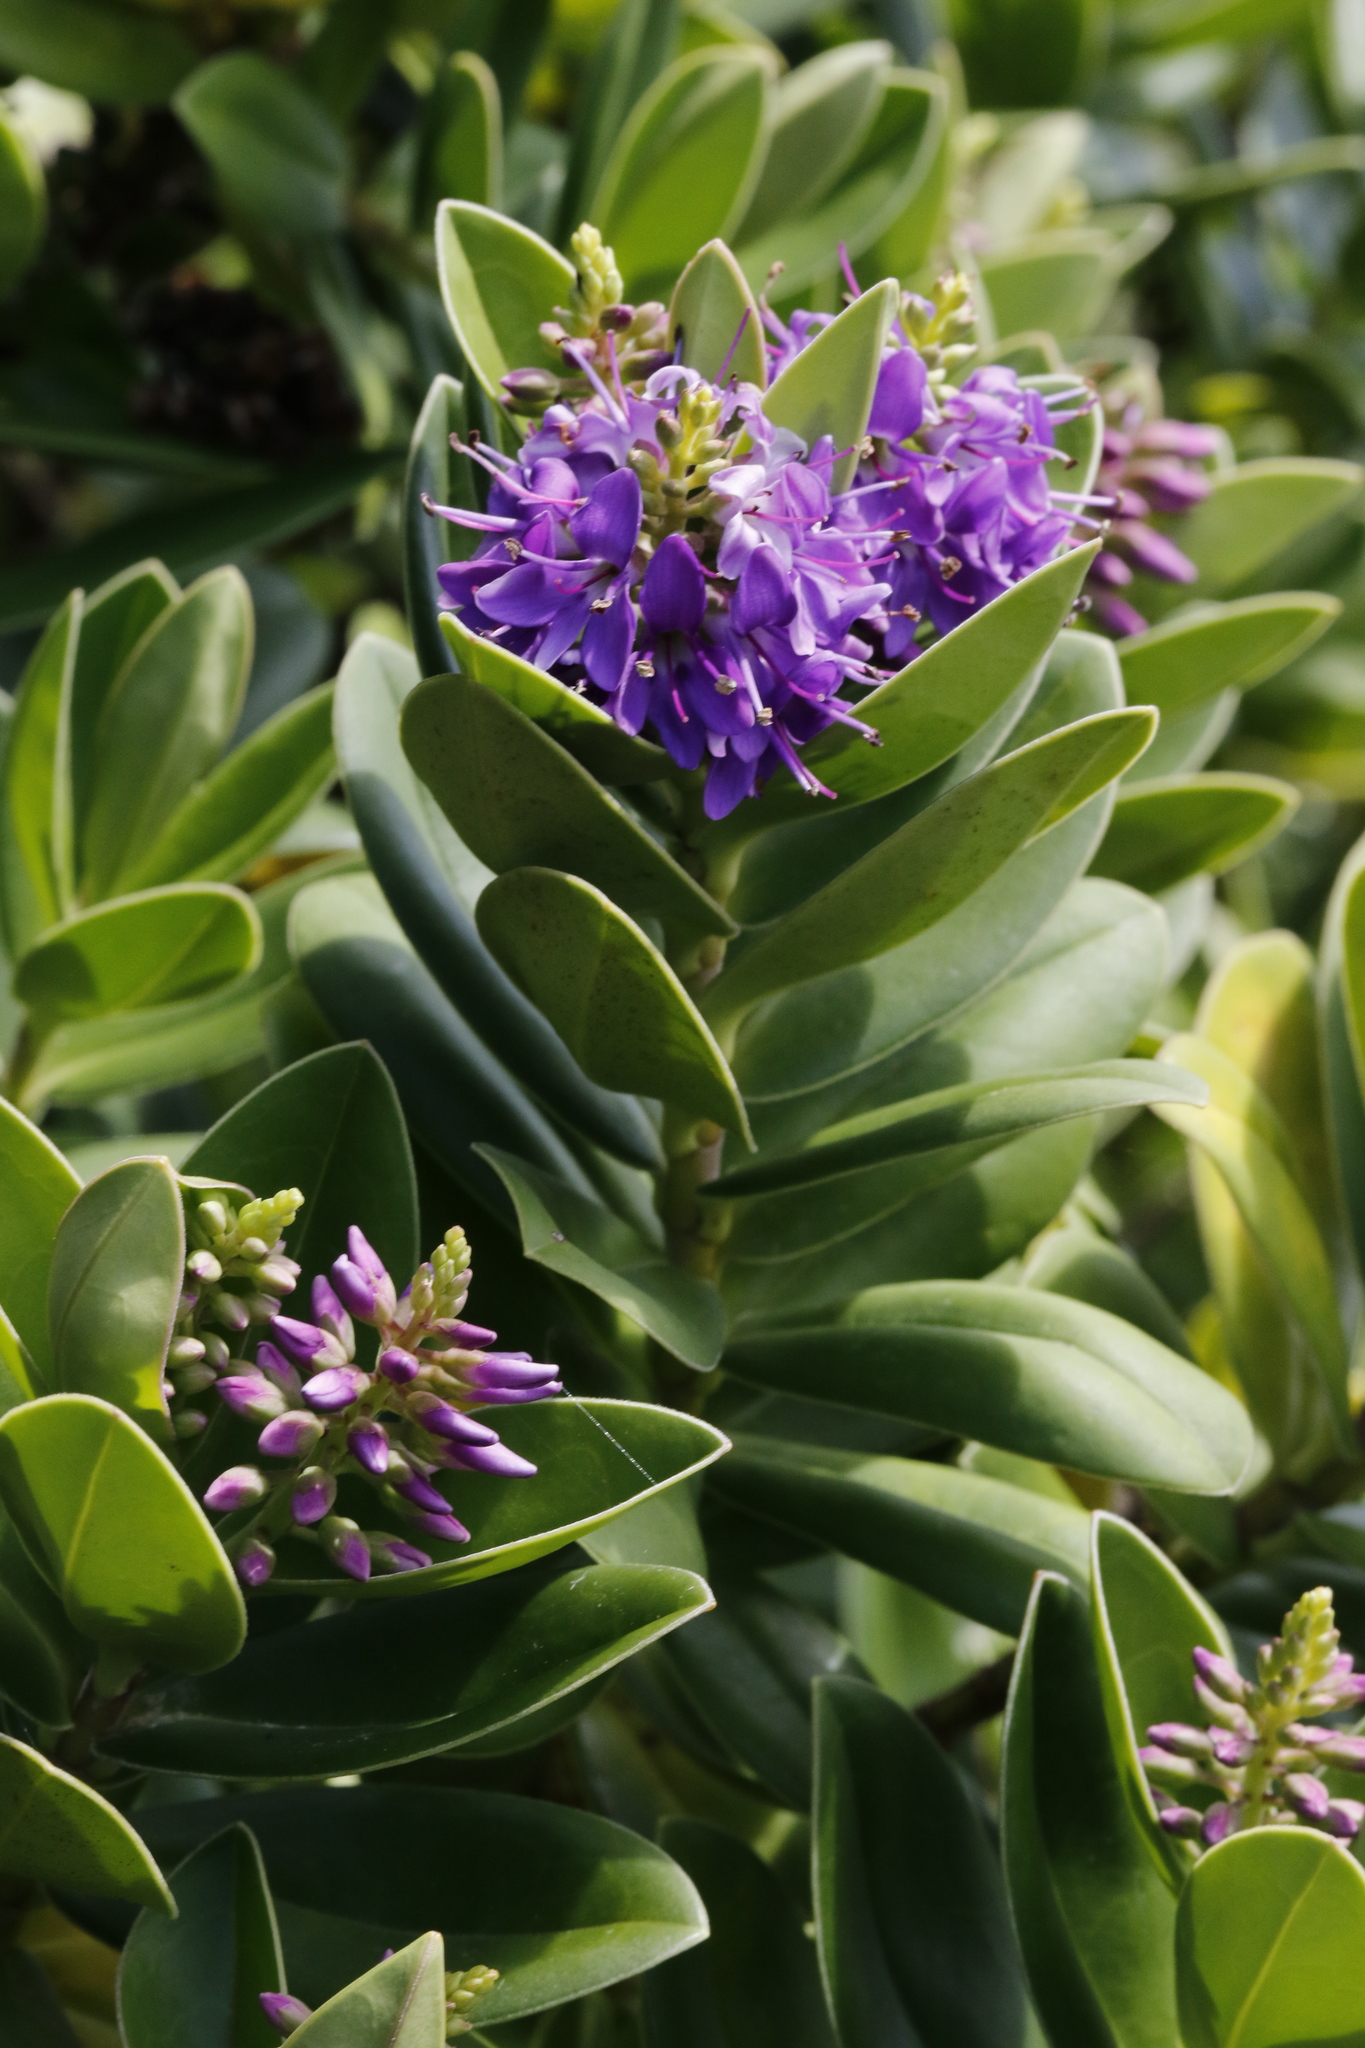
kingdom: Plantae
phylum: Tracheophyta
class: Magnoliopsida
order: Lamiales
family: Plantaginaceae
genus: Veronica
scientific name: Veronica franciscana
